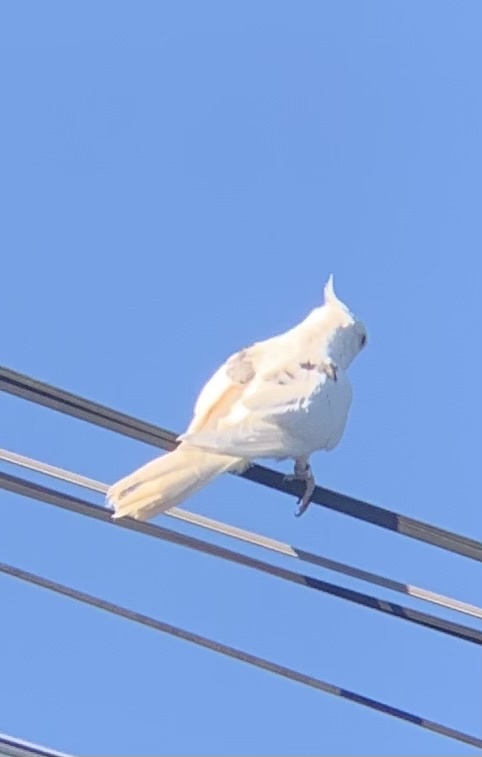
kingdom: Animalia
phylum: Chordata
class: Aves
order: Psittaciformes
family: Psittacidae
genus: Nymphicus
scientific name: Nymphicus hollandicus
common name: Cockatiel
